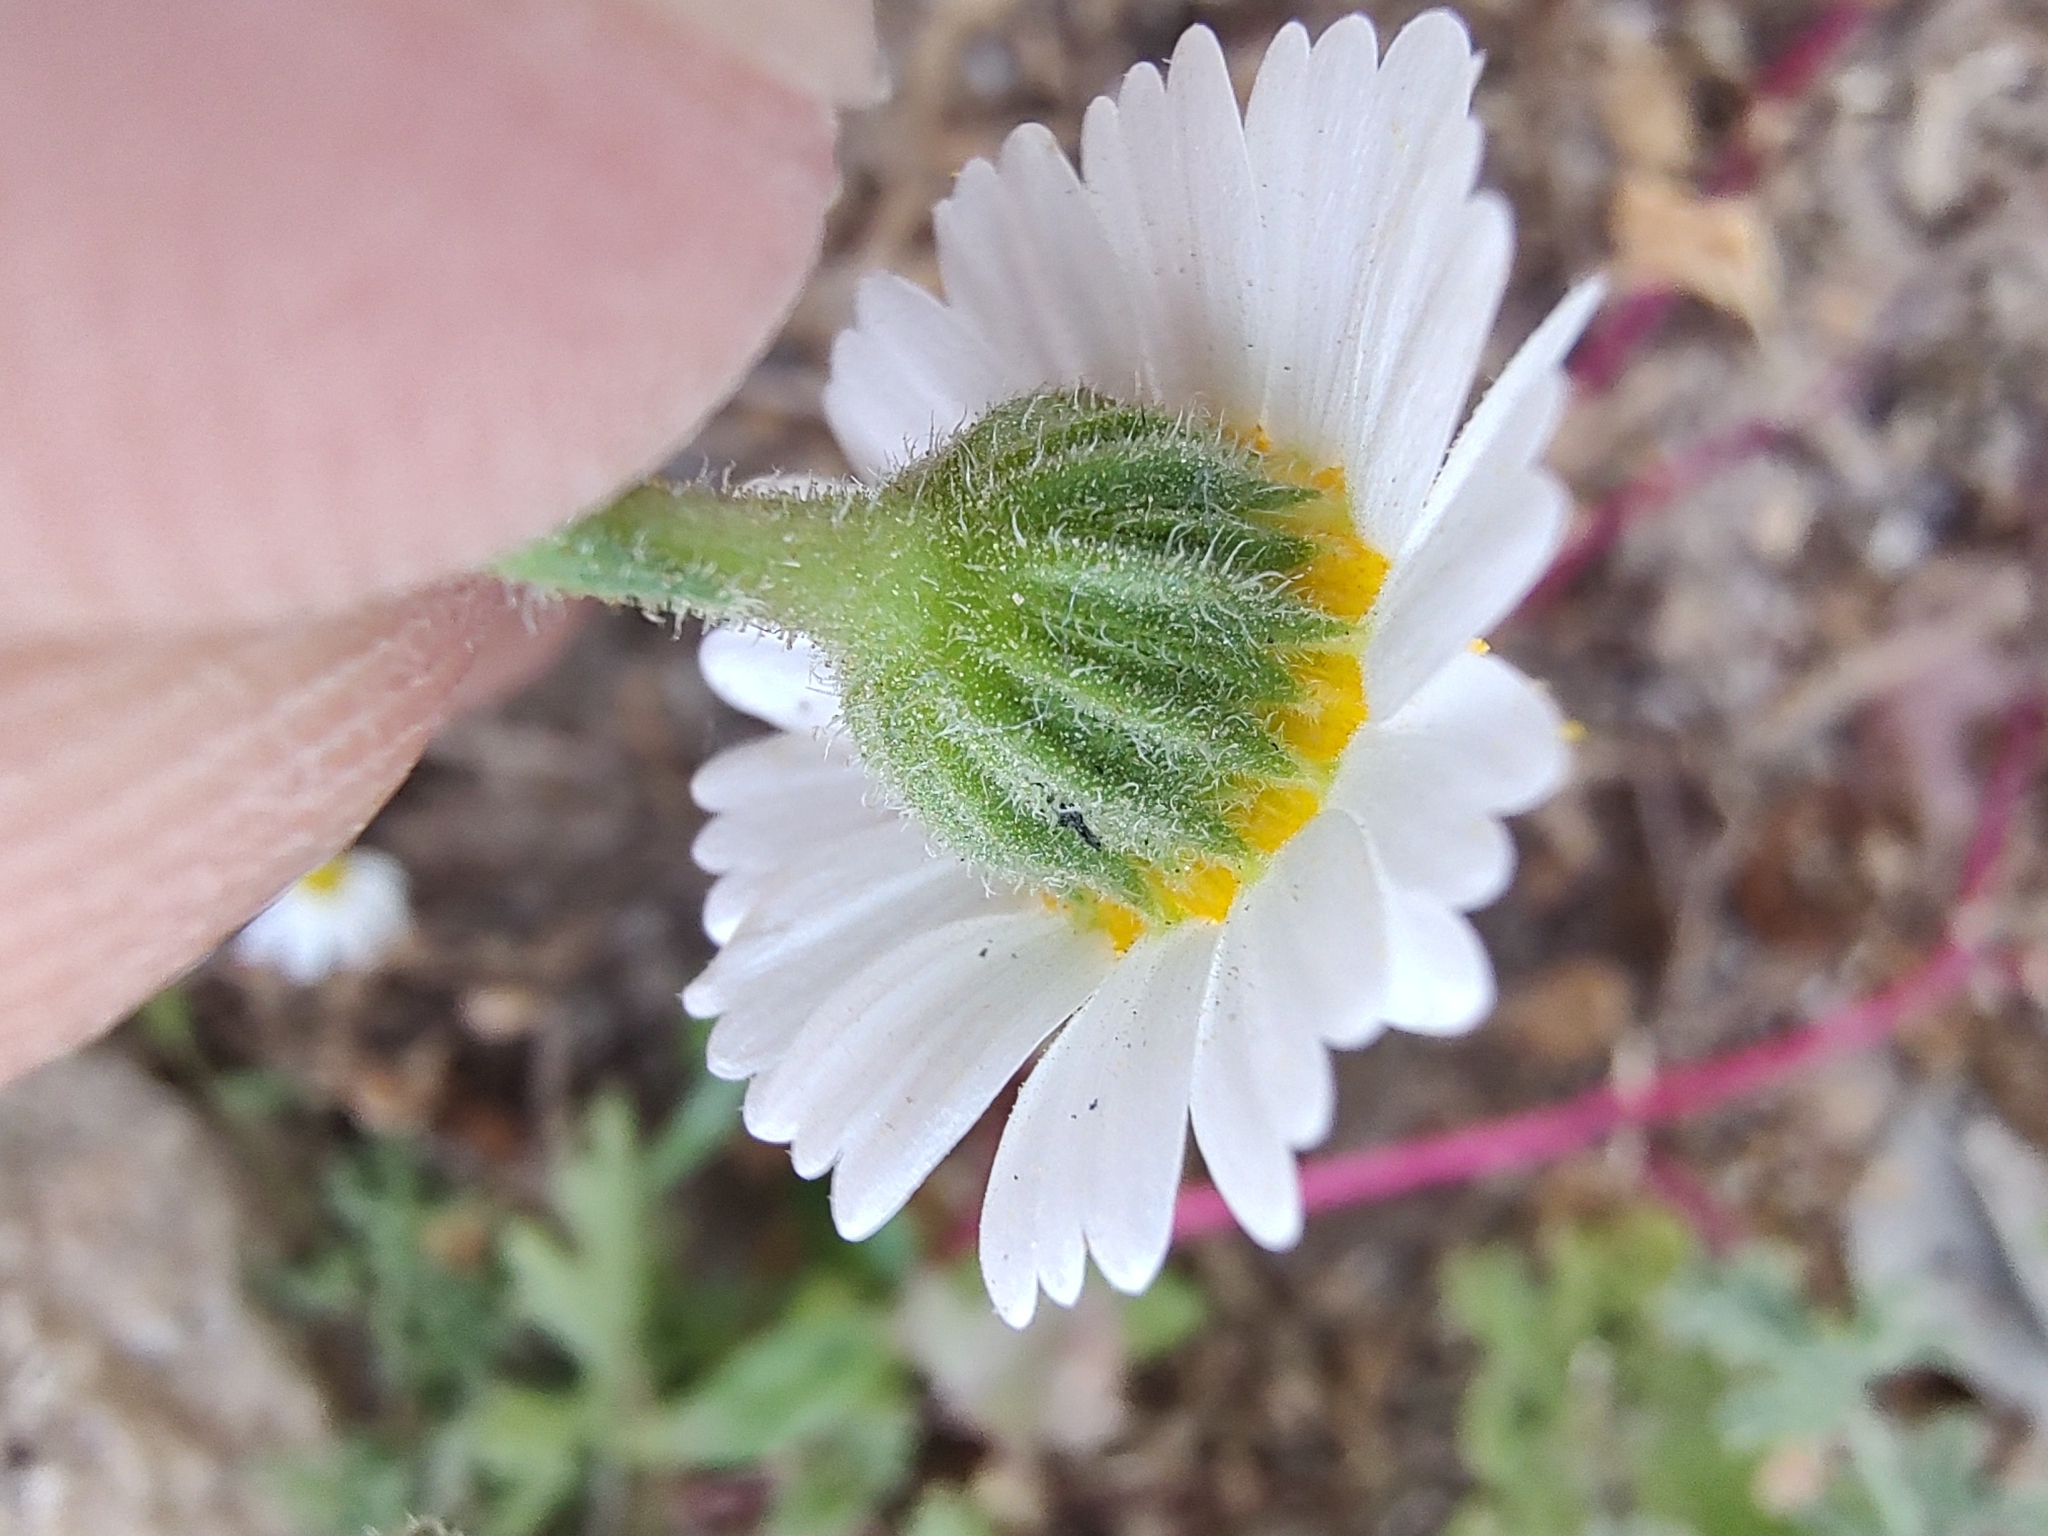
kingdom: Plantae
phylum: Tracheophyta
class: Magnoliopsida
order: Asterales
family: Asteraceae
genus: Perityle
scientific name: Perityle crassifolia
